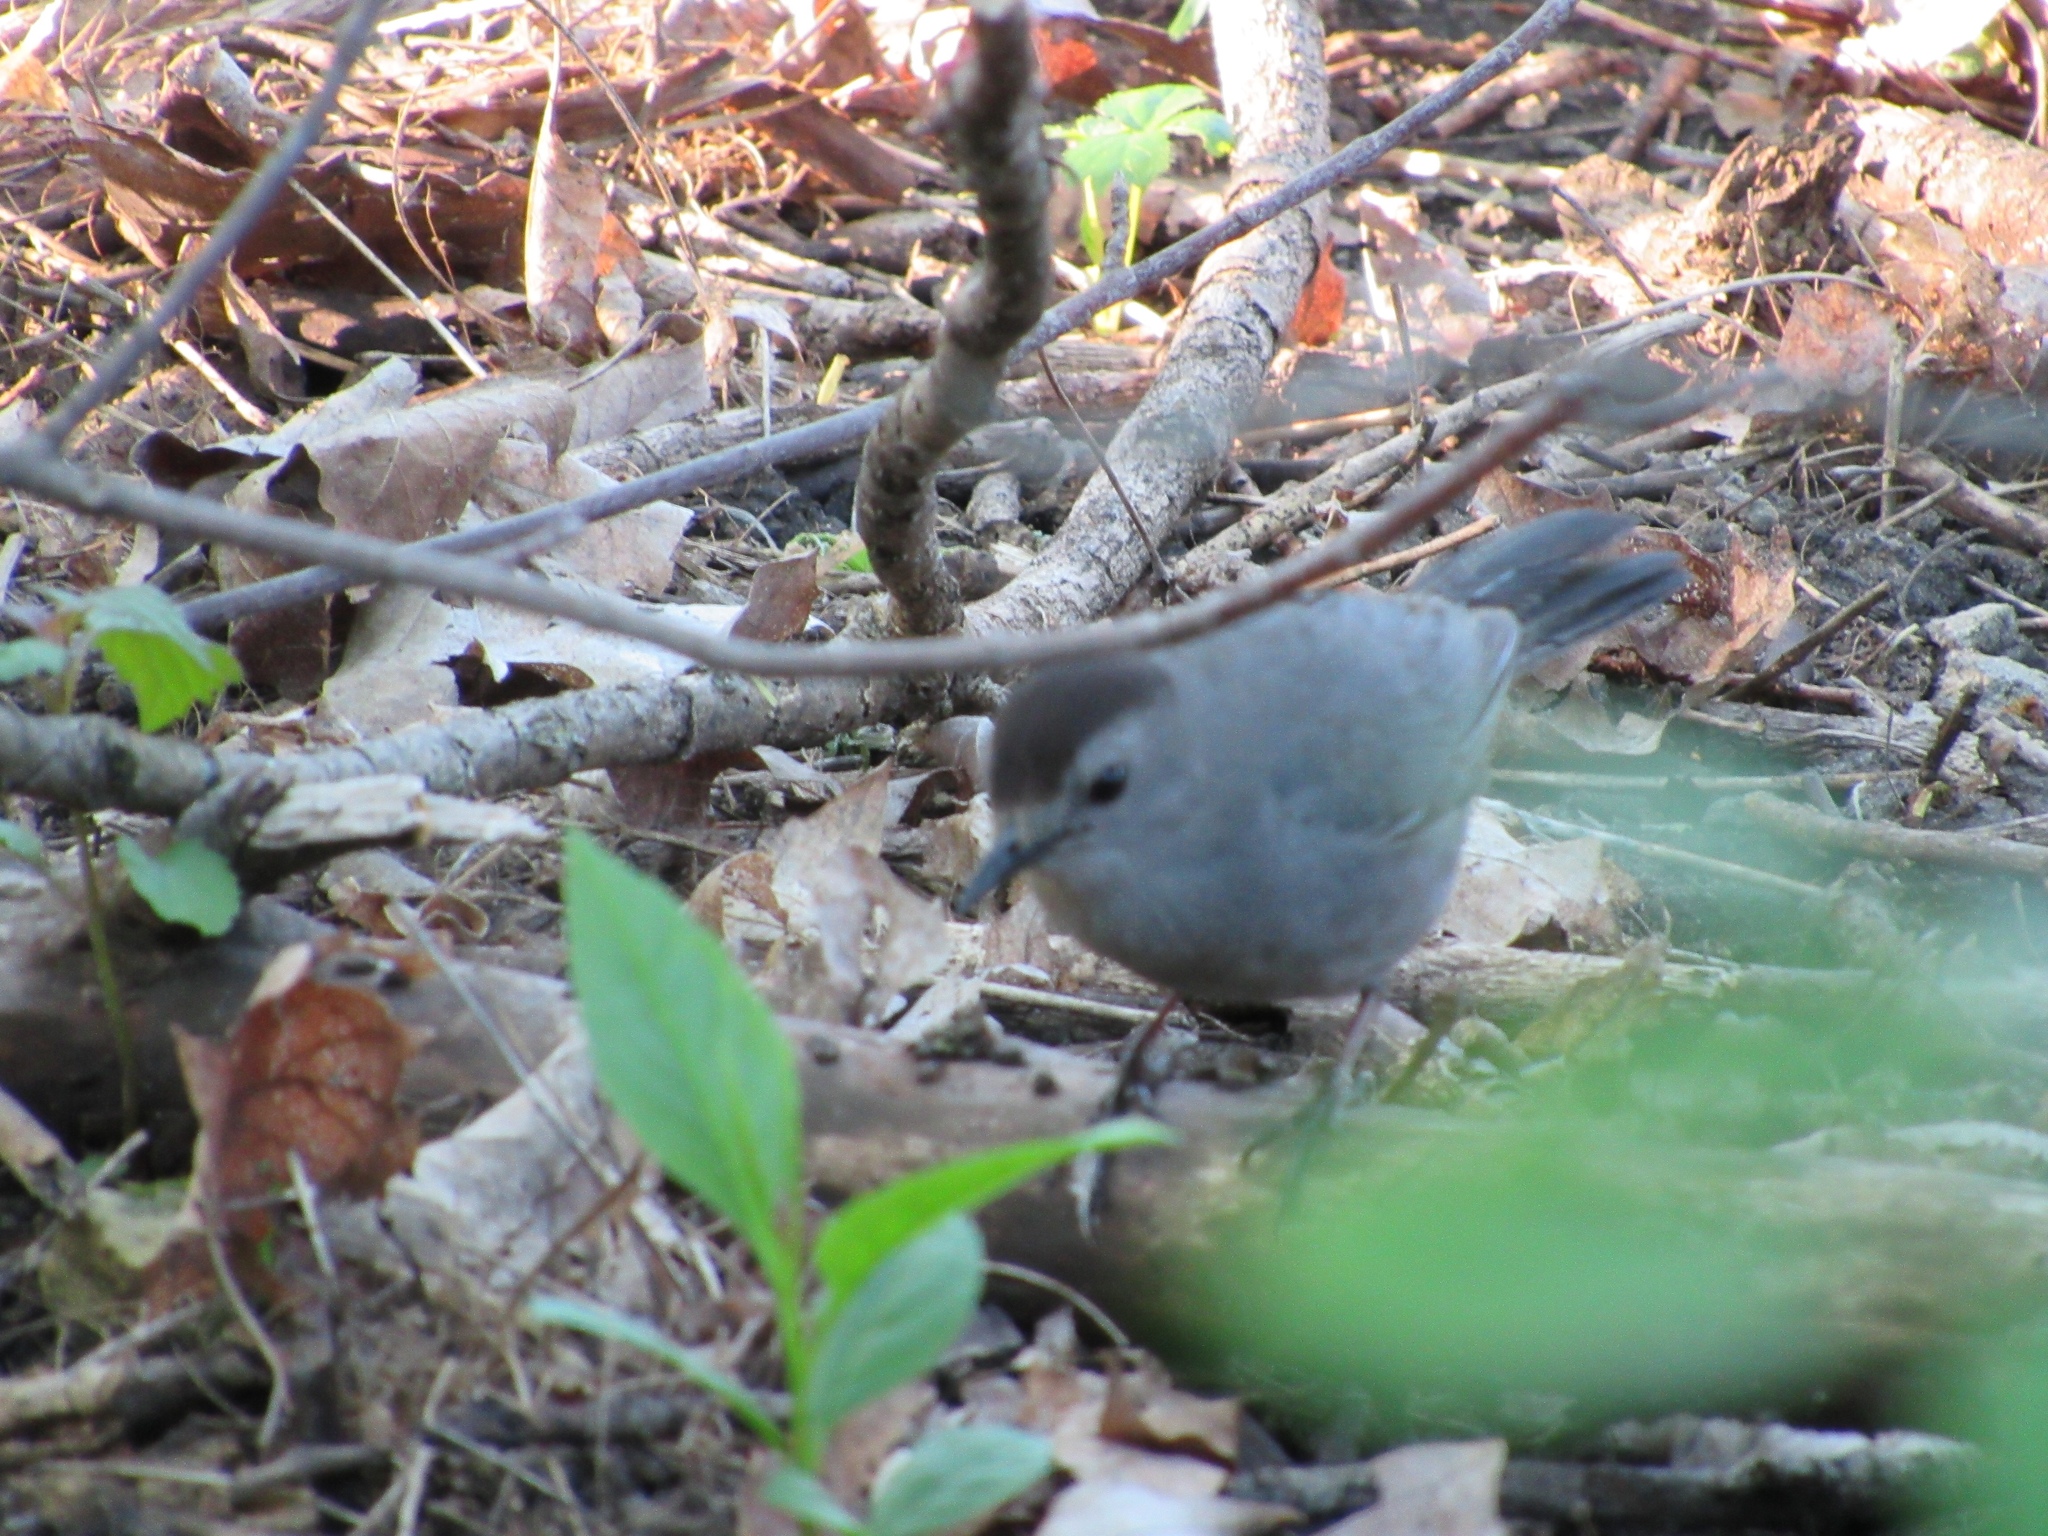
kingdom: Animalia
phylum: Chordata
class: Aves
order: Passeriformes
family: Mimidae
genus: Dumetella
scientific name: Dumetella carolinensis
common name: Gray catbird
